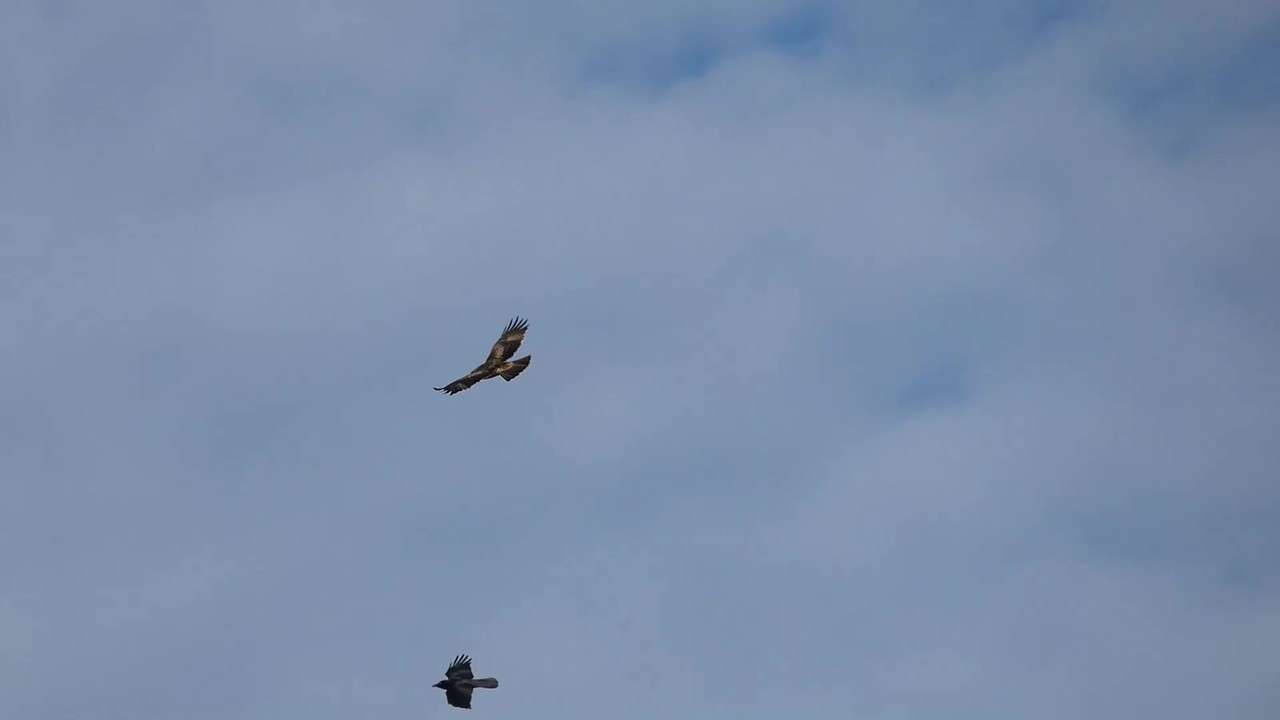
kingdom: Animalia
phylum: Chordata
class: Aves
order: Accipitriformes
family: Accipitridae
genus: Hieraaetus
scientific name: Hieraaetus morphnoides
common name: Little eagle
